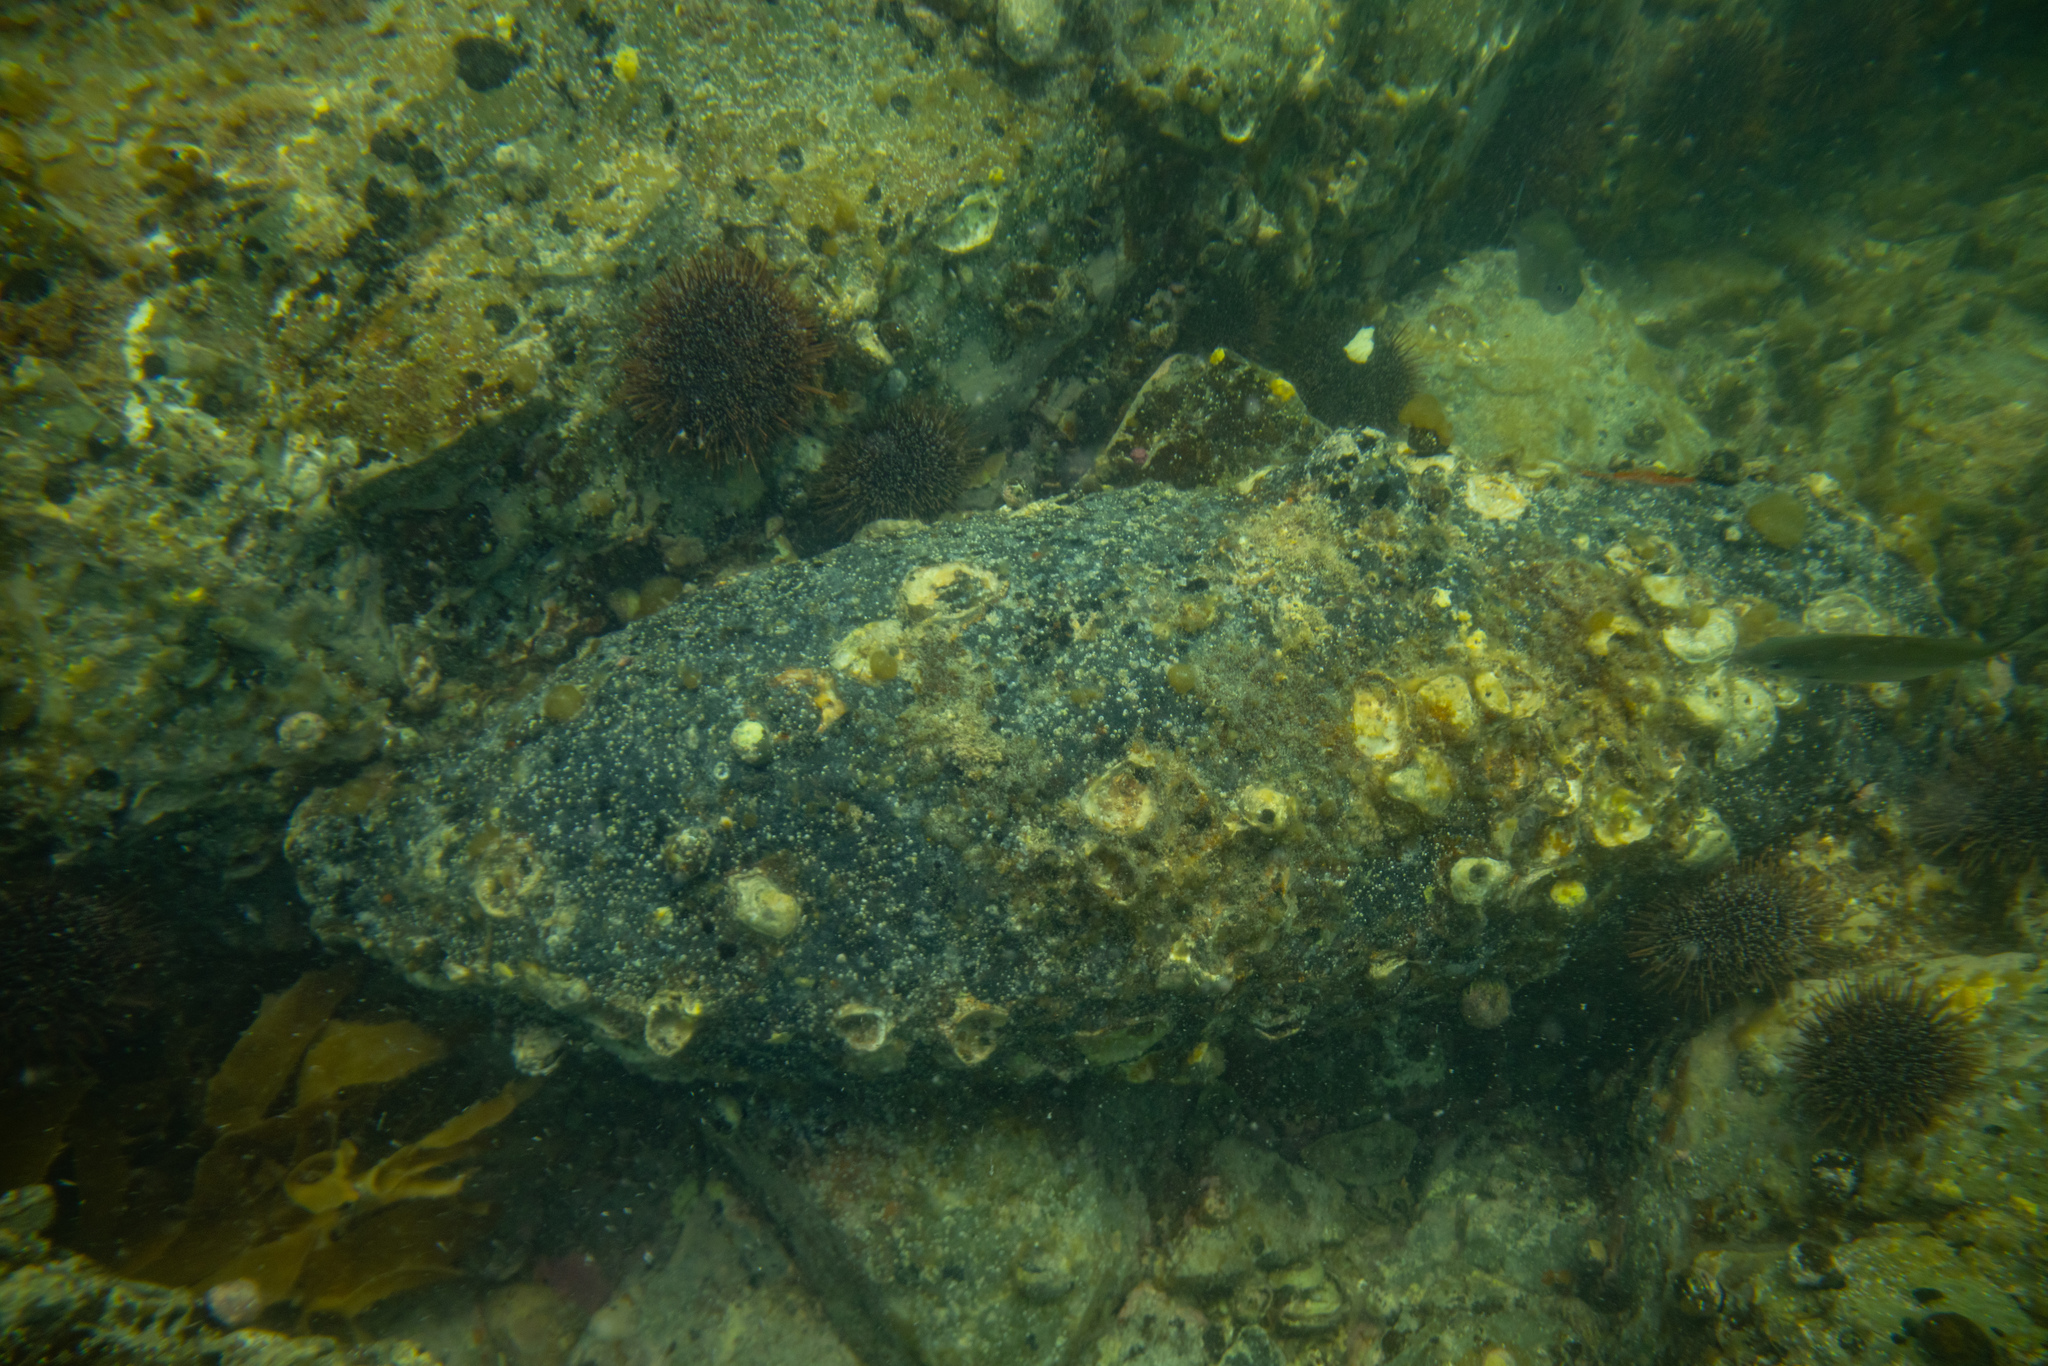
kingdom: Animalia
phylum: Mollusca
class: Bivalvia
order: Ostreida
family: Ostreidae
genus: Saccostrea
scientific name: Saccostrea glomerata
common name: Sydney cupped oyster
